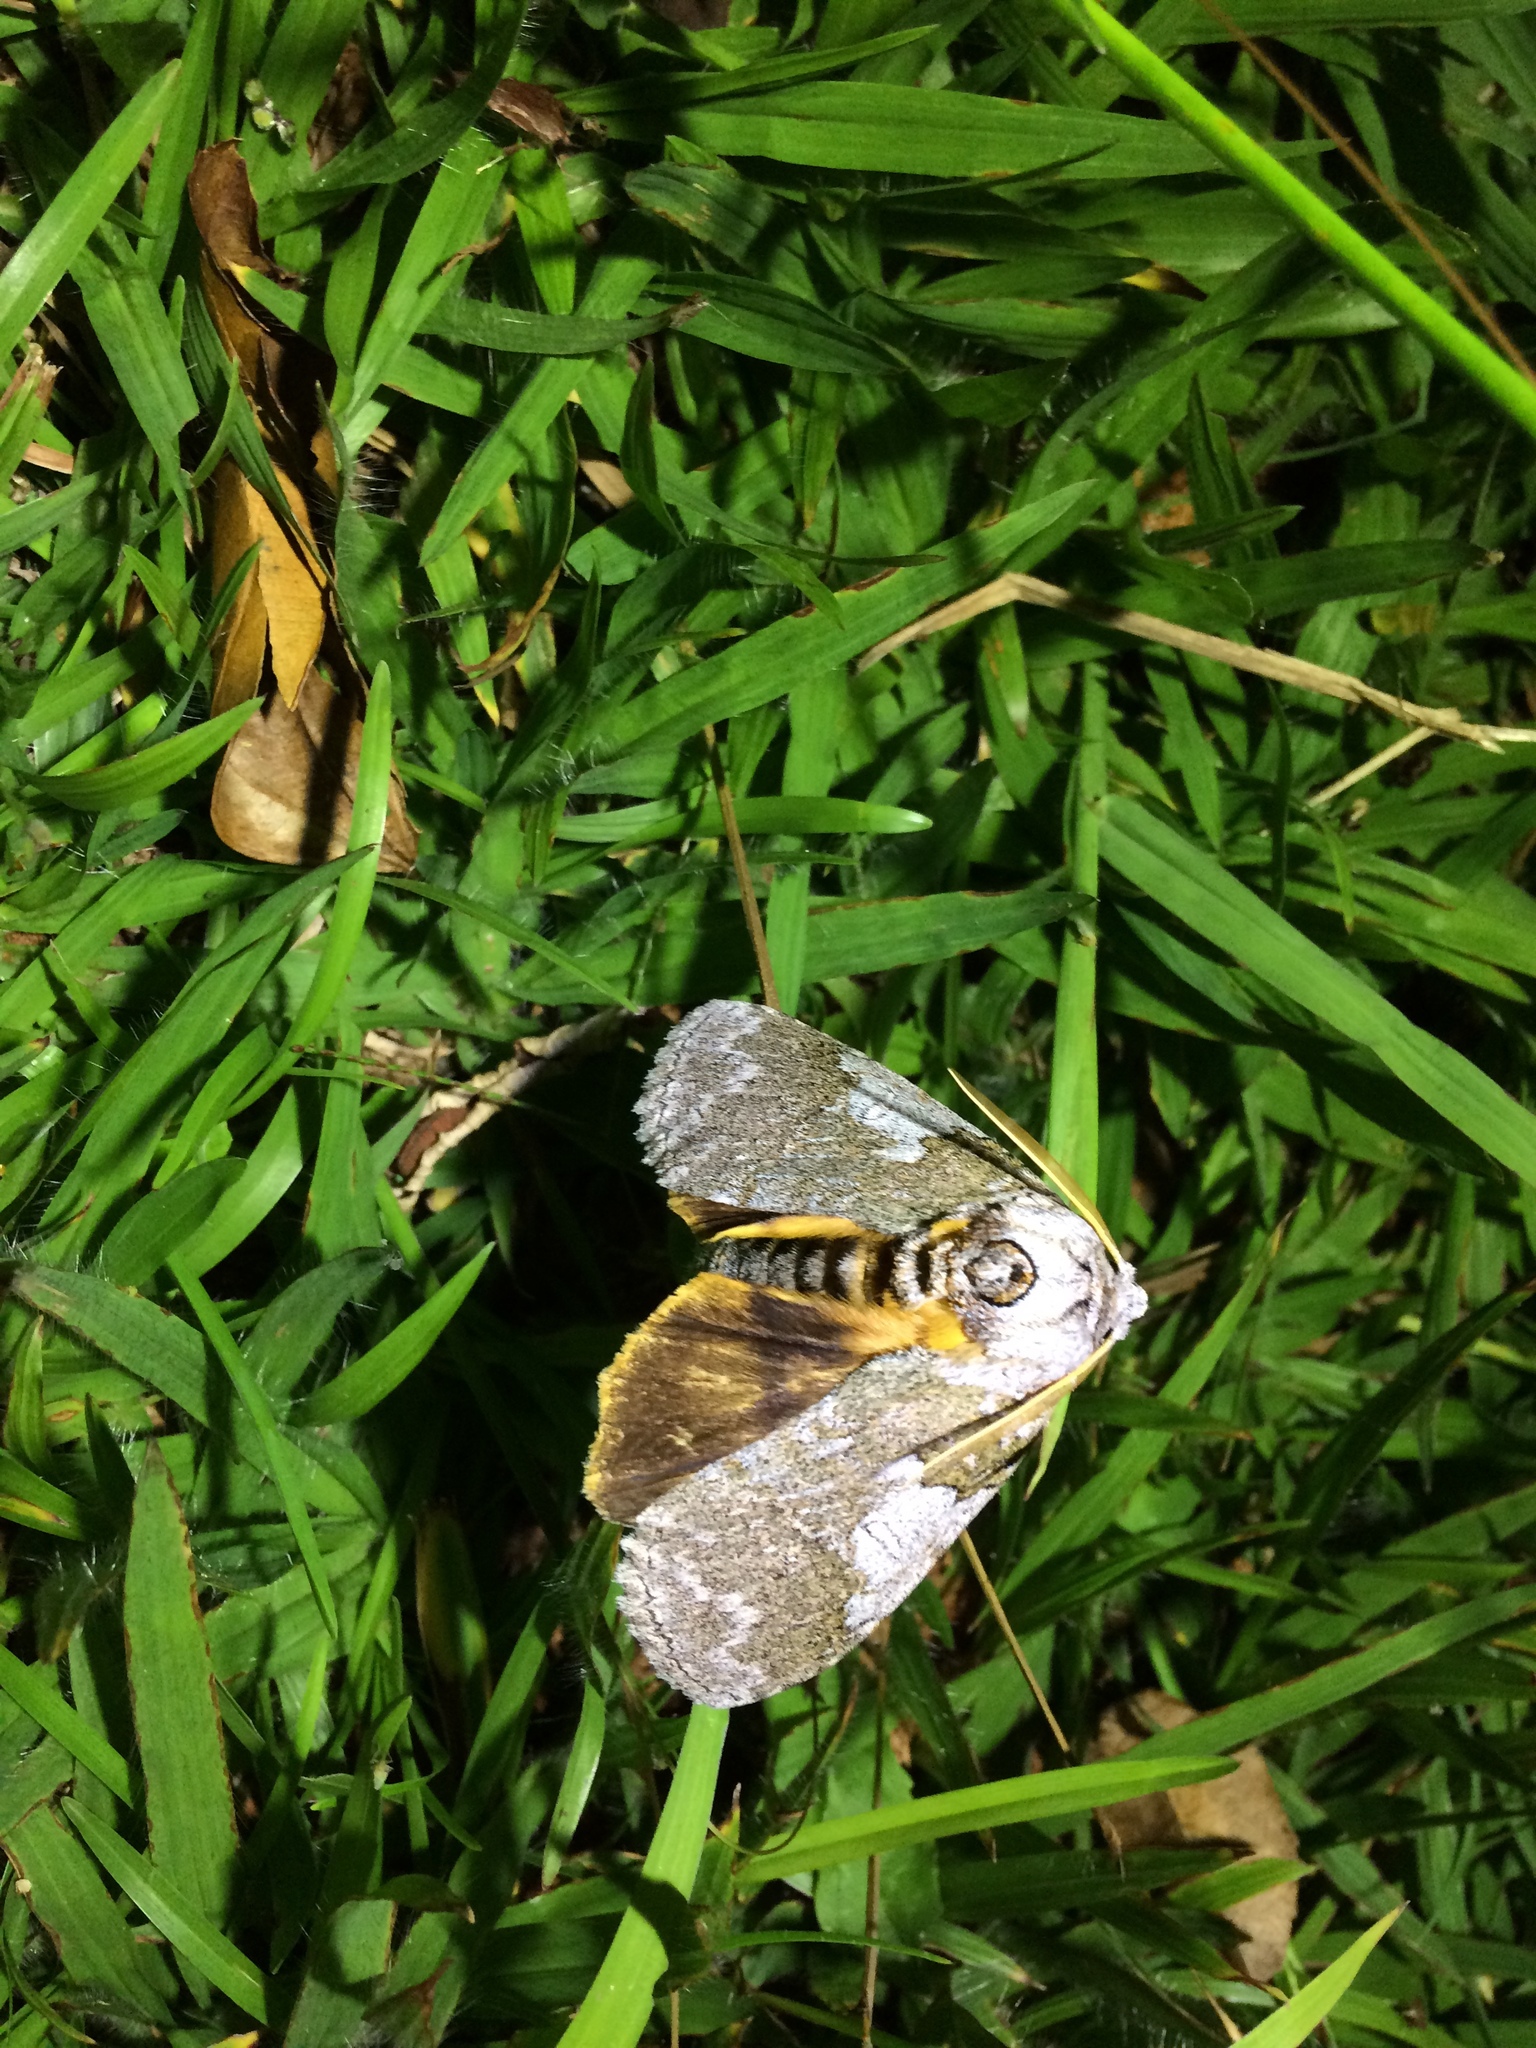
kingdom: Animalia
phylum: Arthropoda
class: Insecta
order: Lepidoptera
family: Notodontidae
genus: Anurocampa
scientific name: Anurocampa mingens
